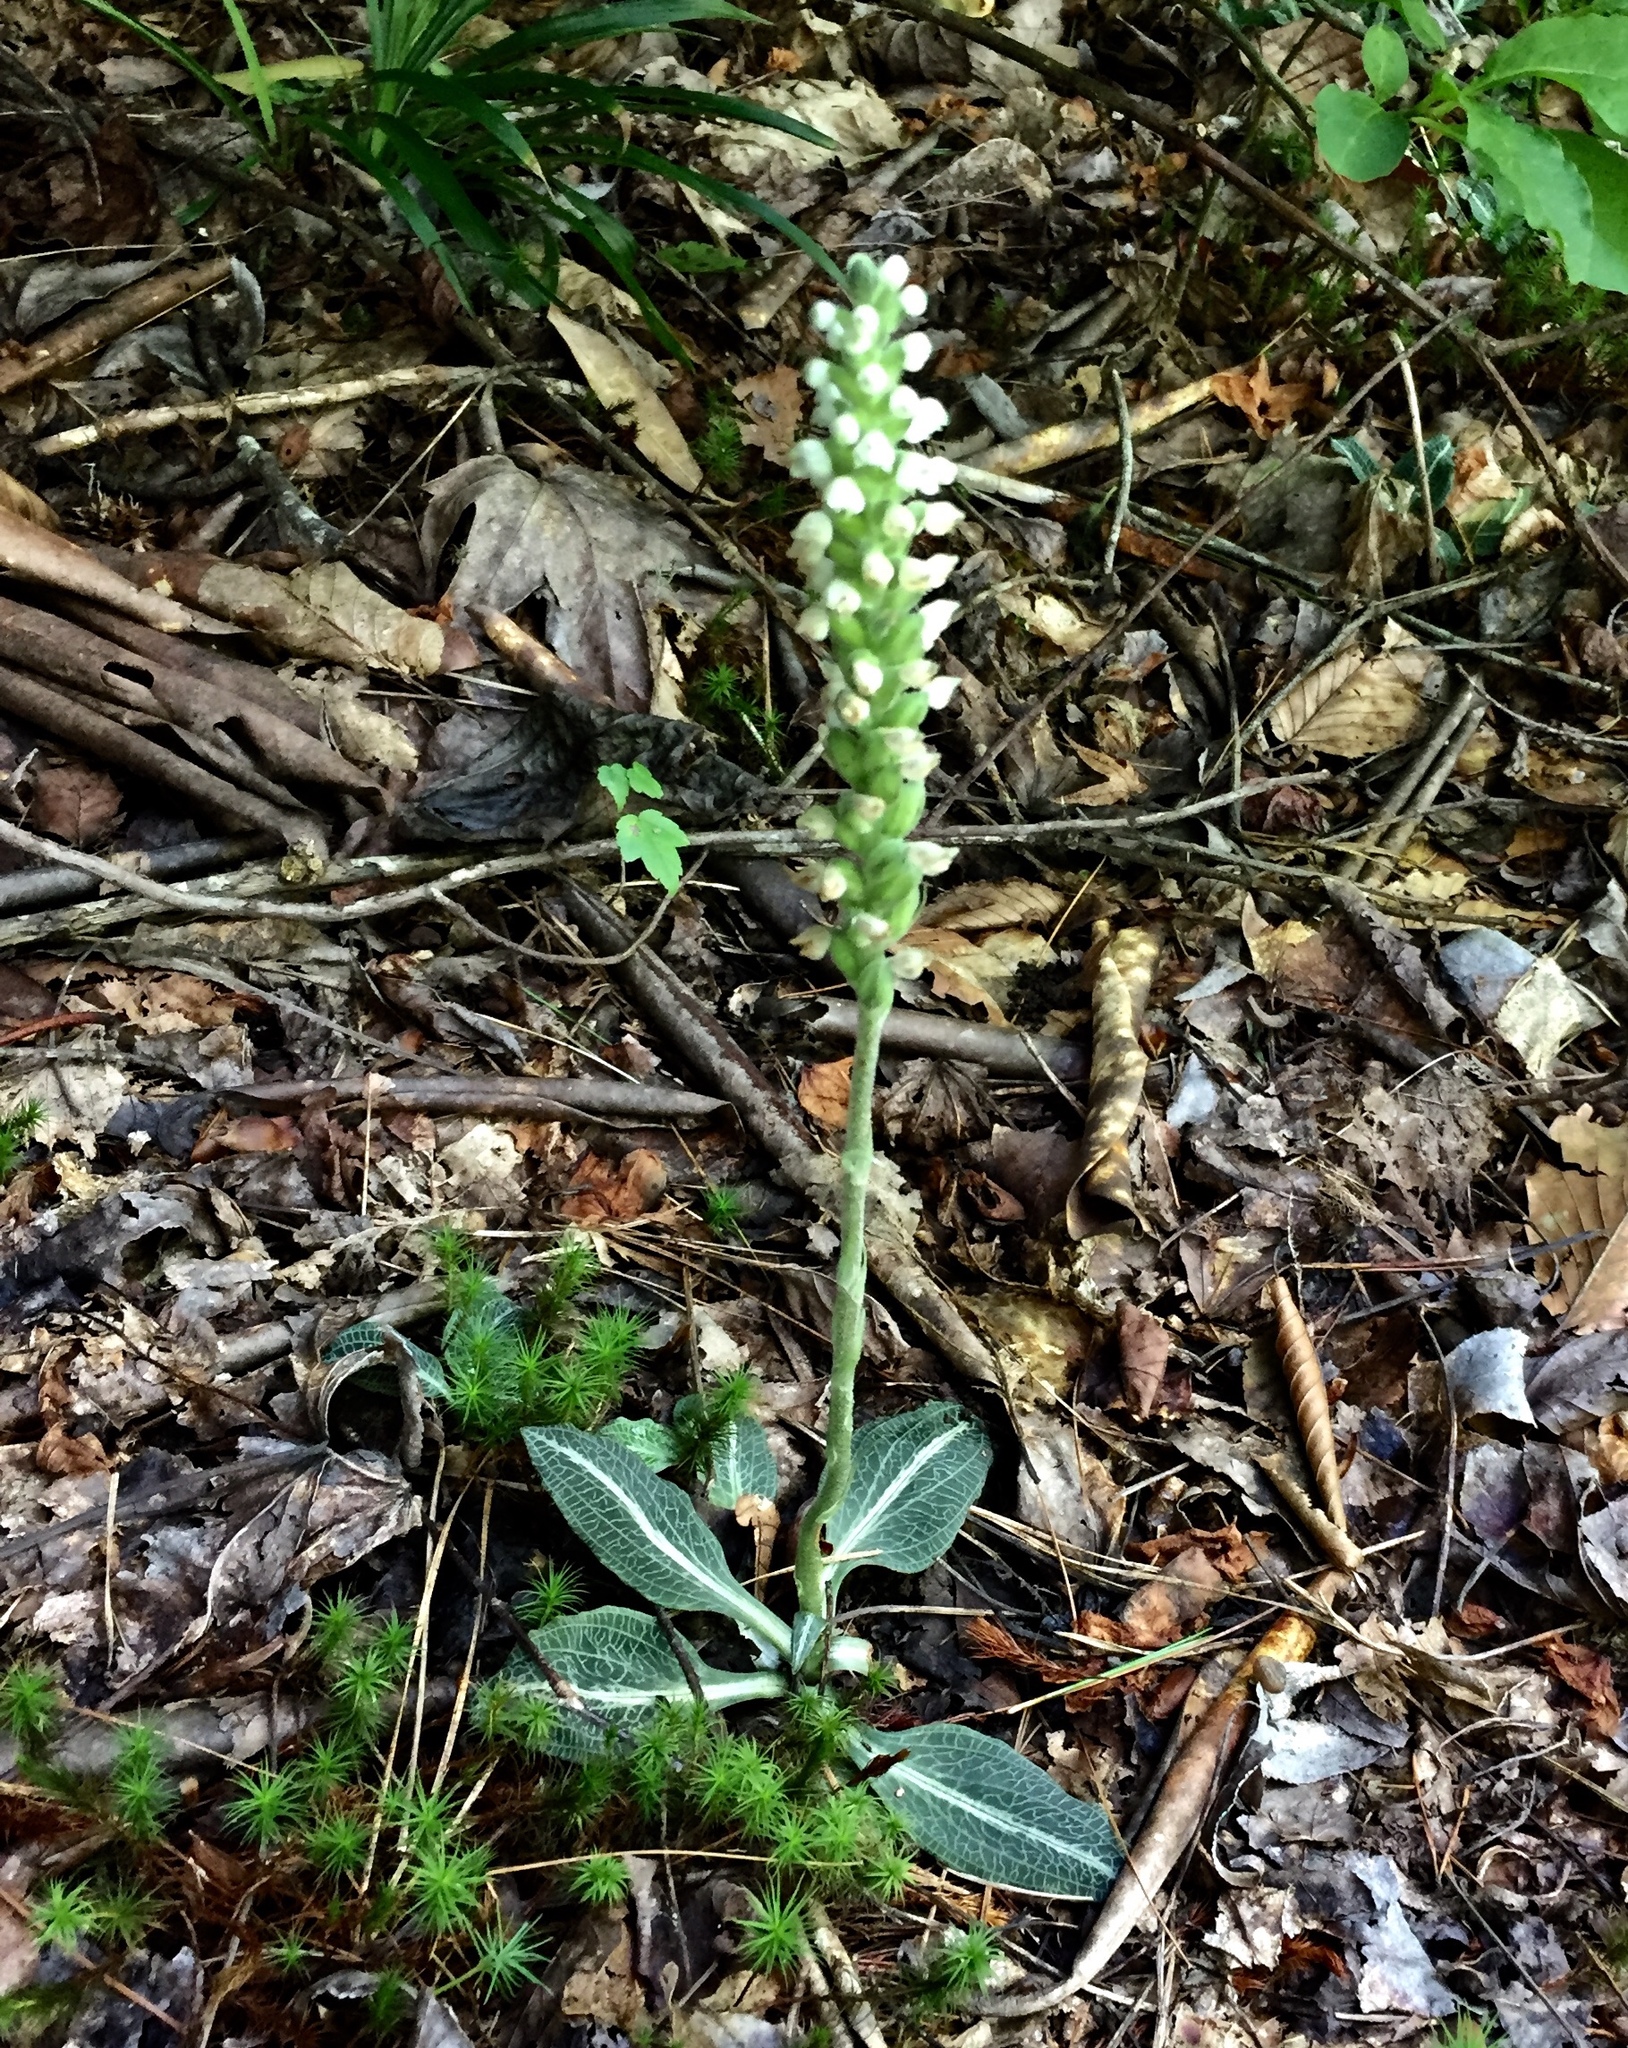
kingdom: Plantae
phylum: Tracheophyta
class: Liliopsida
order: Asparagales
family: Orchidaceae
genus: Goodyera
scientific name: Goodyera pubescens
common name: Downy rattlesnake-plantain
